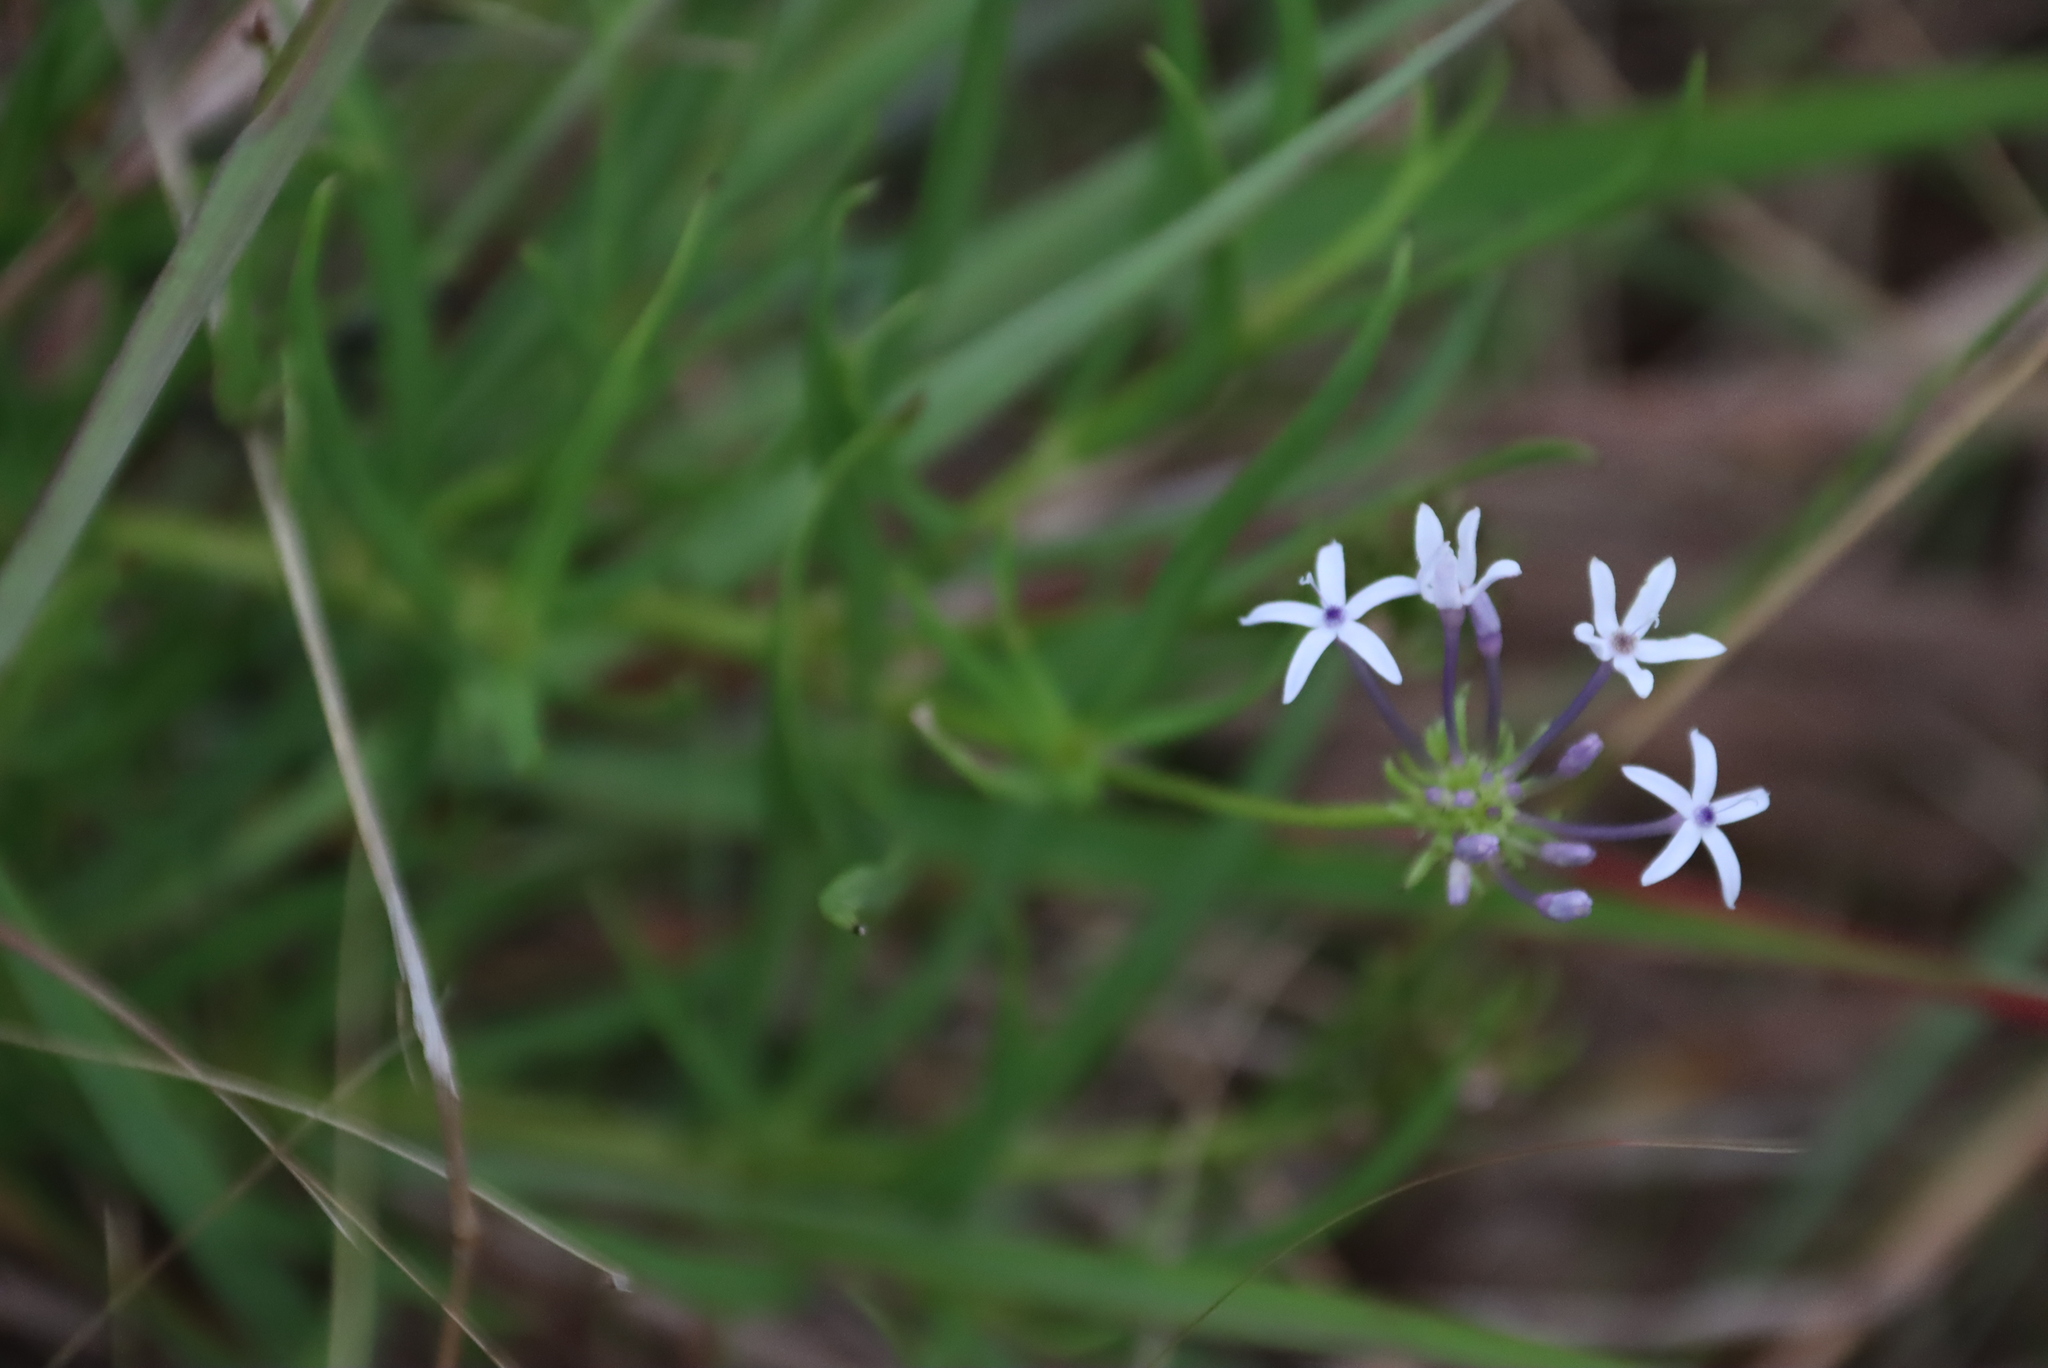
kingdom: Plantae
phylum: Tracheophyta
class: Magnoliopsida
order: Gentianales
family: Rubiaceae
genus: Pentanisia
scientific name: Pentanisia angustifolia
